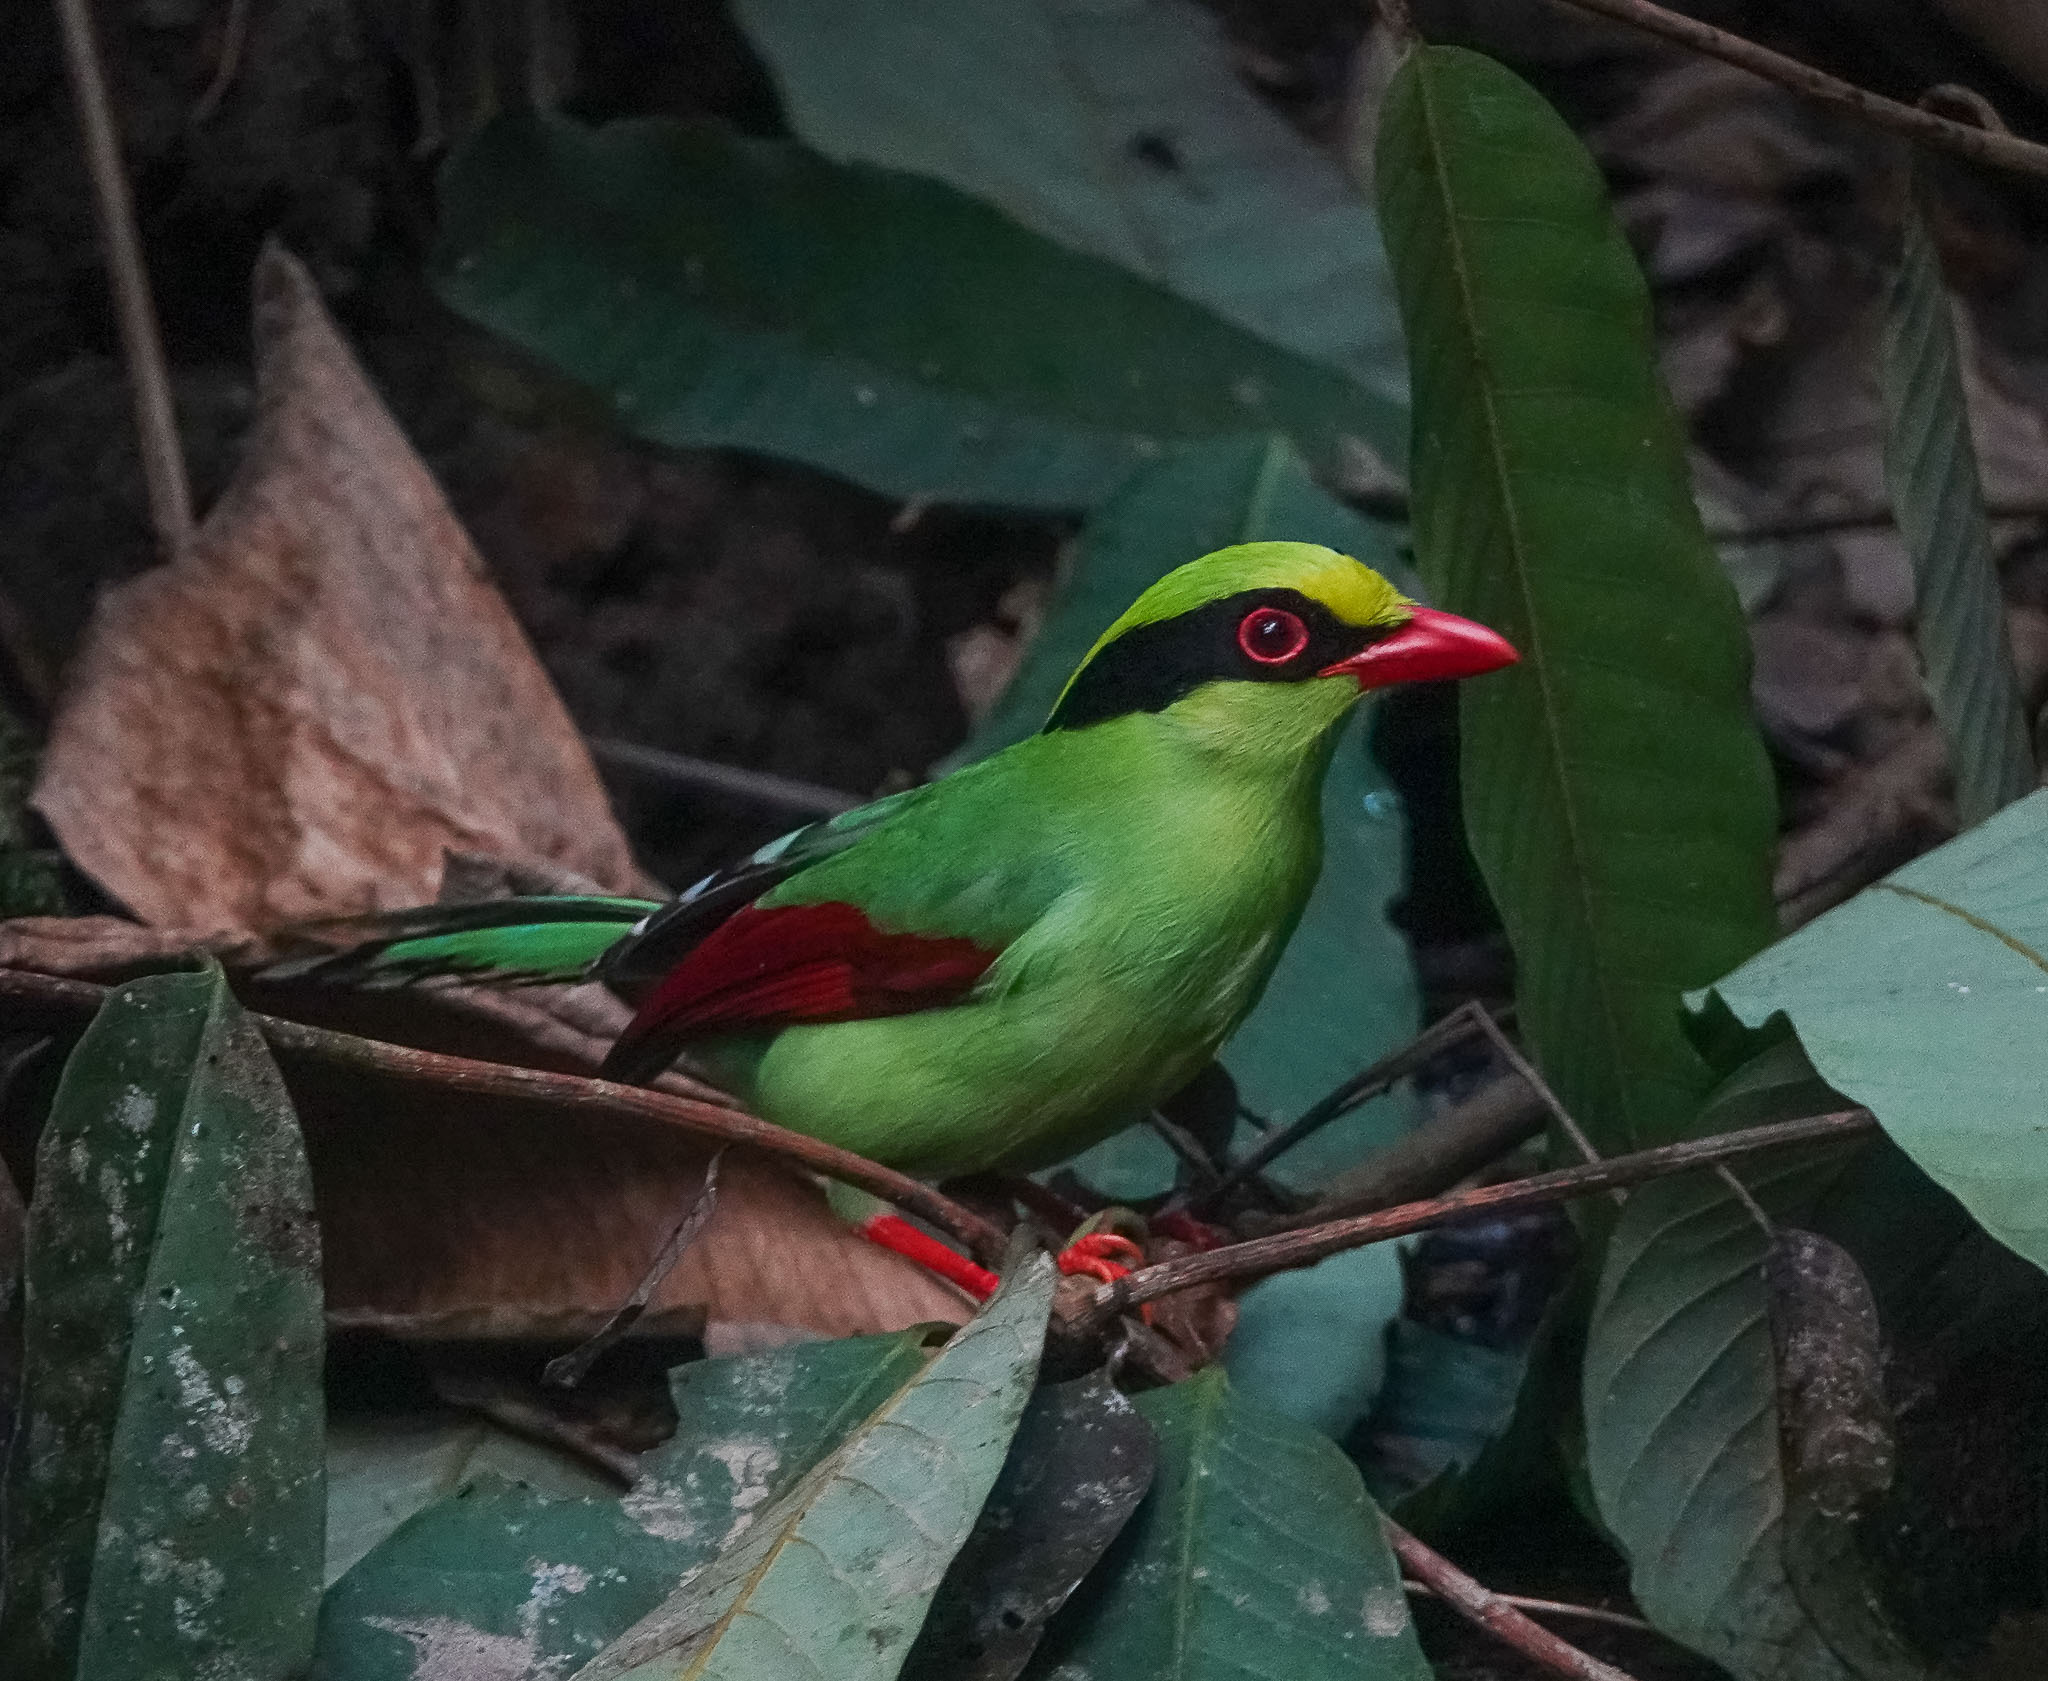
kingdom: Animalia
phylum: Chordata
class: Aves
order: Passeriformes
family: Corvidae
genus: Cissa
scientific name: Cissa chinensis
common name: Common green magpie
